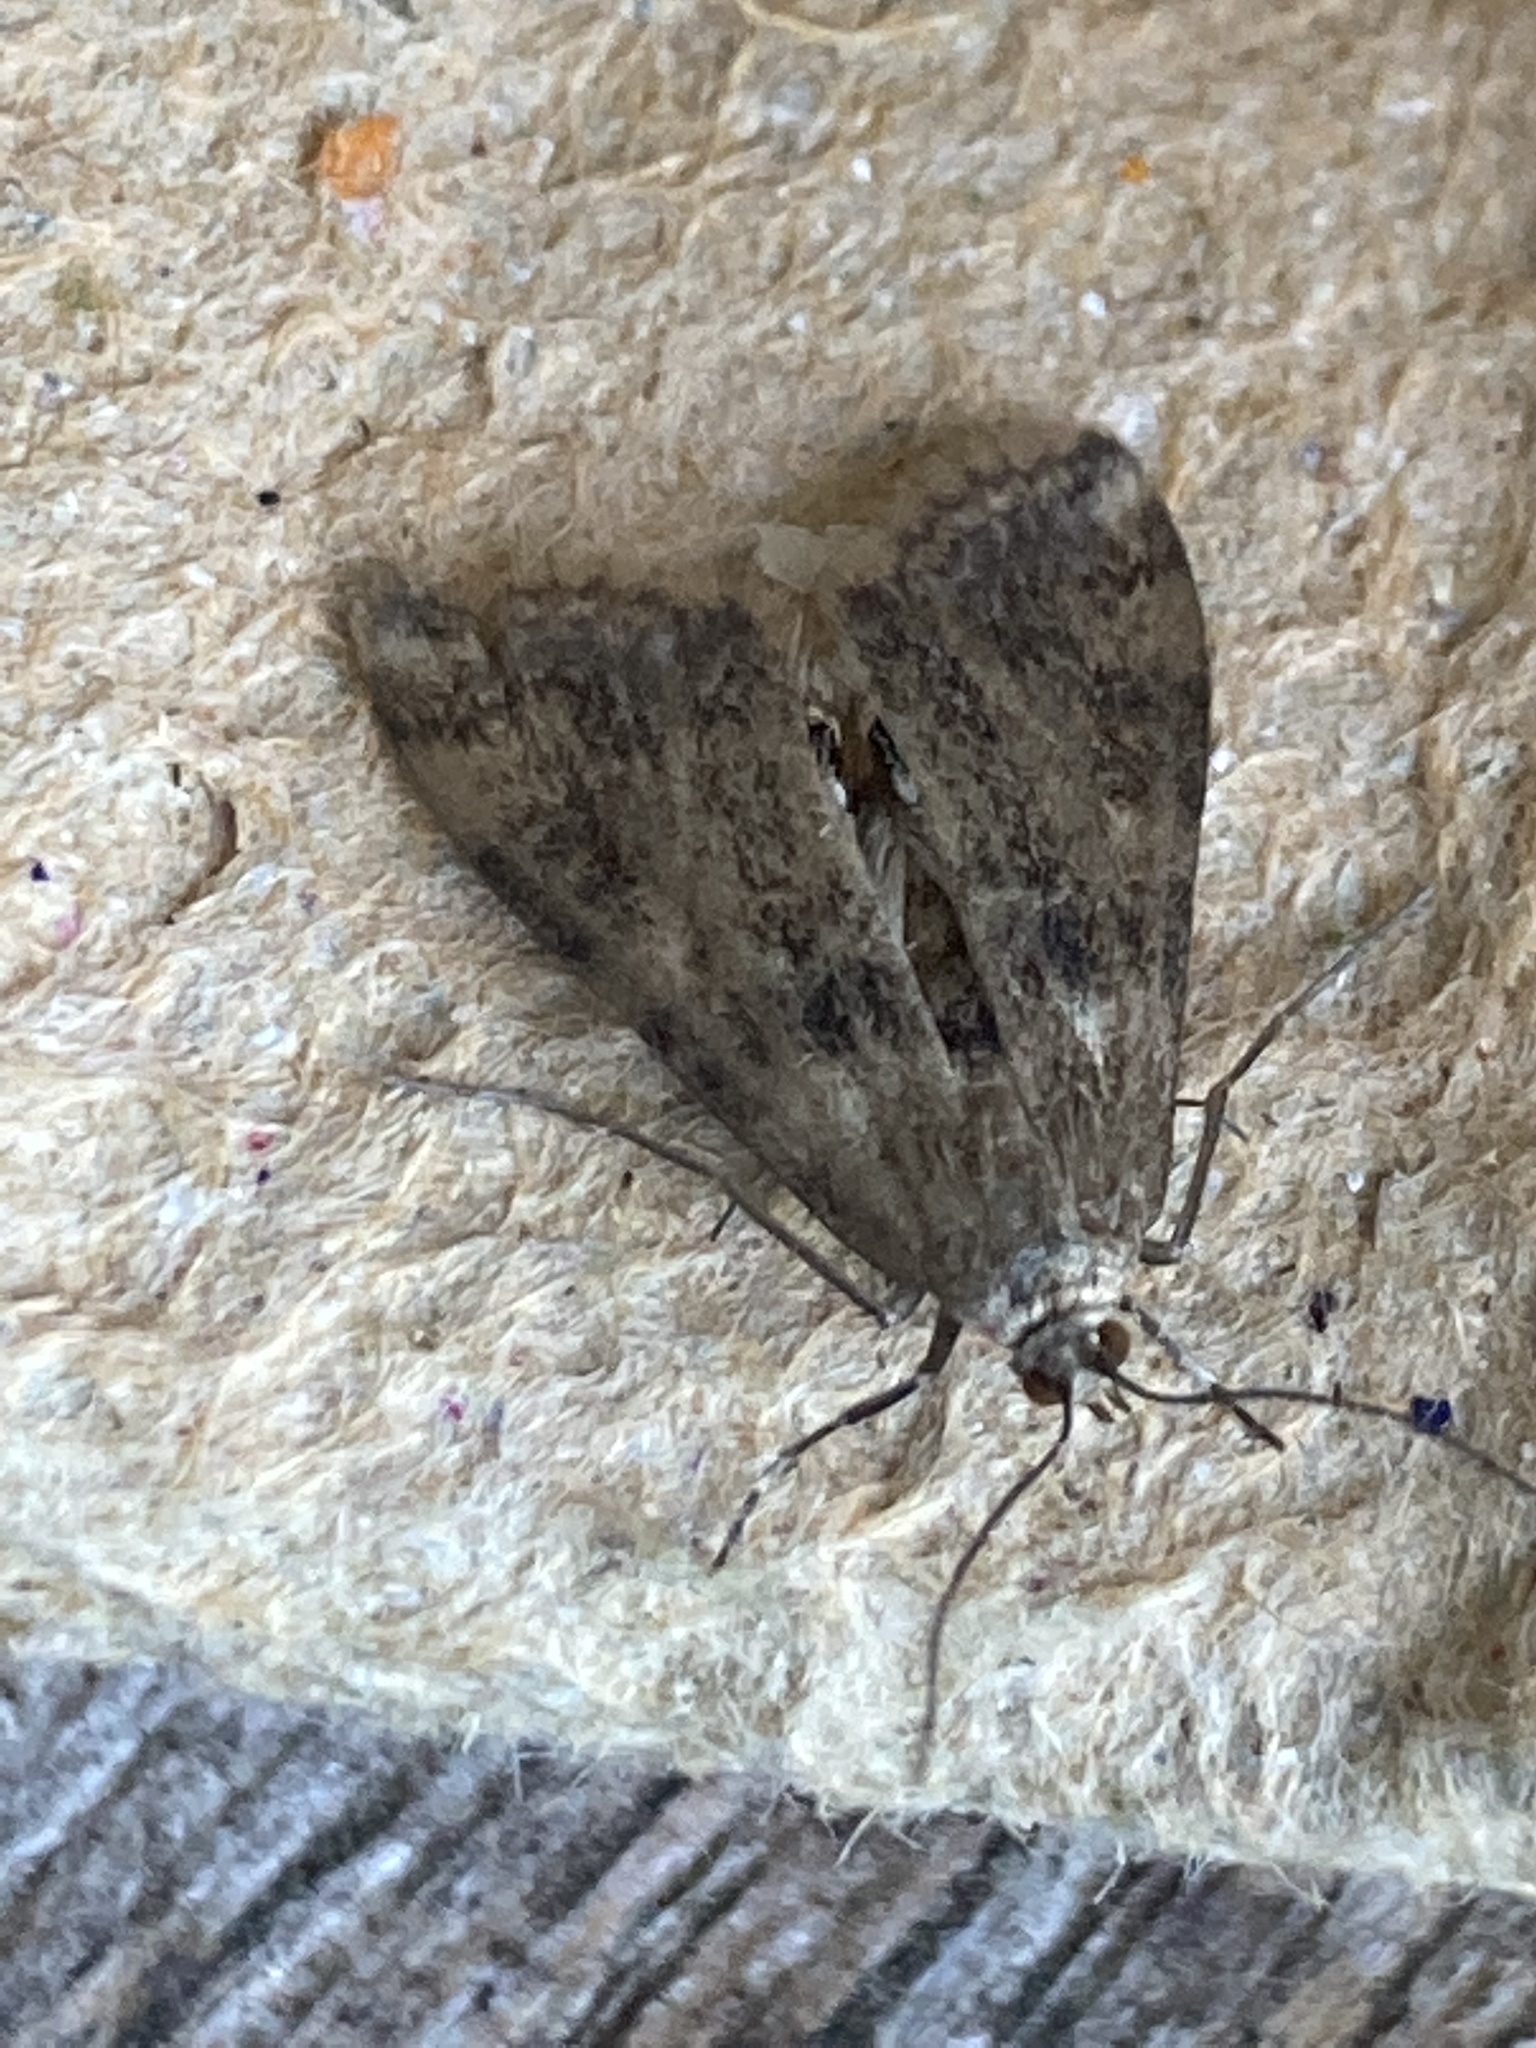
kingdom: Animalia
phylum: Arthropoda
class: Insecta
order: Lepidoptera
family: Crambidae
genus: Cataclysta
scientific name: Cataclysta lemnata
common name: Small china-mark
